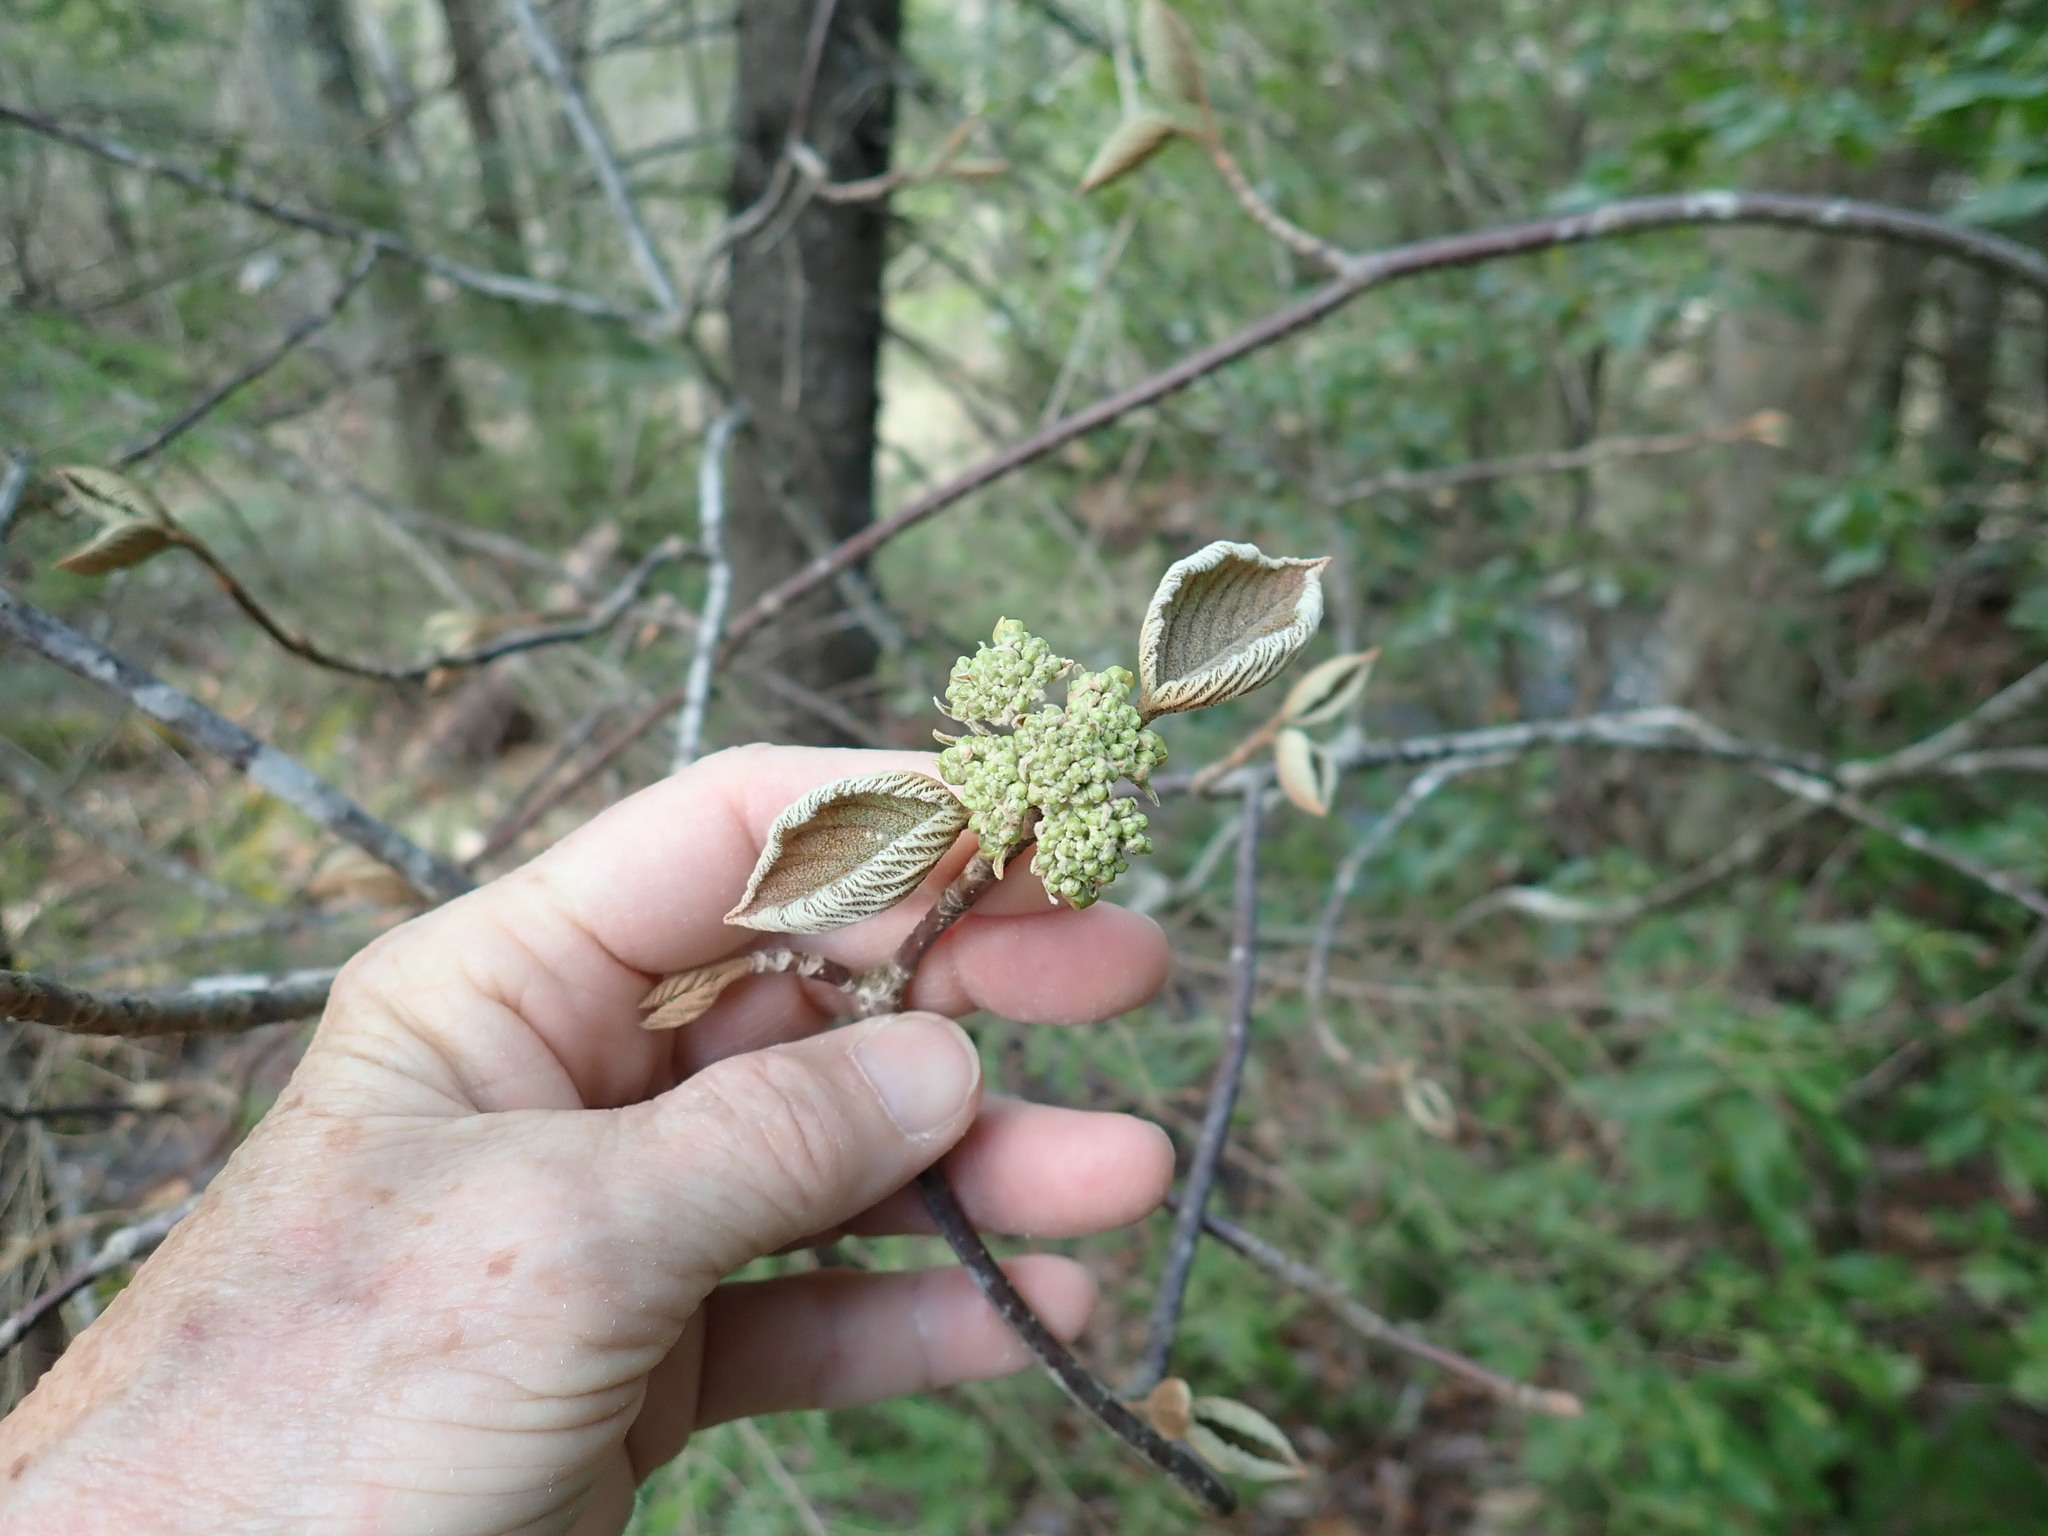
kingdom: Plantae
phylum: Tracheophyta
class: Magnoliopsida
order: Dipsacales
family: Viburnaceae
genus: Viburnum
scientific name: Viburnum lantanoides
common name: Hobblebush
